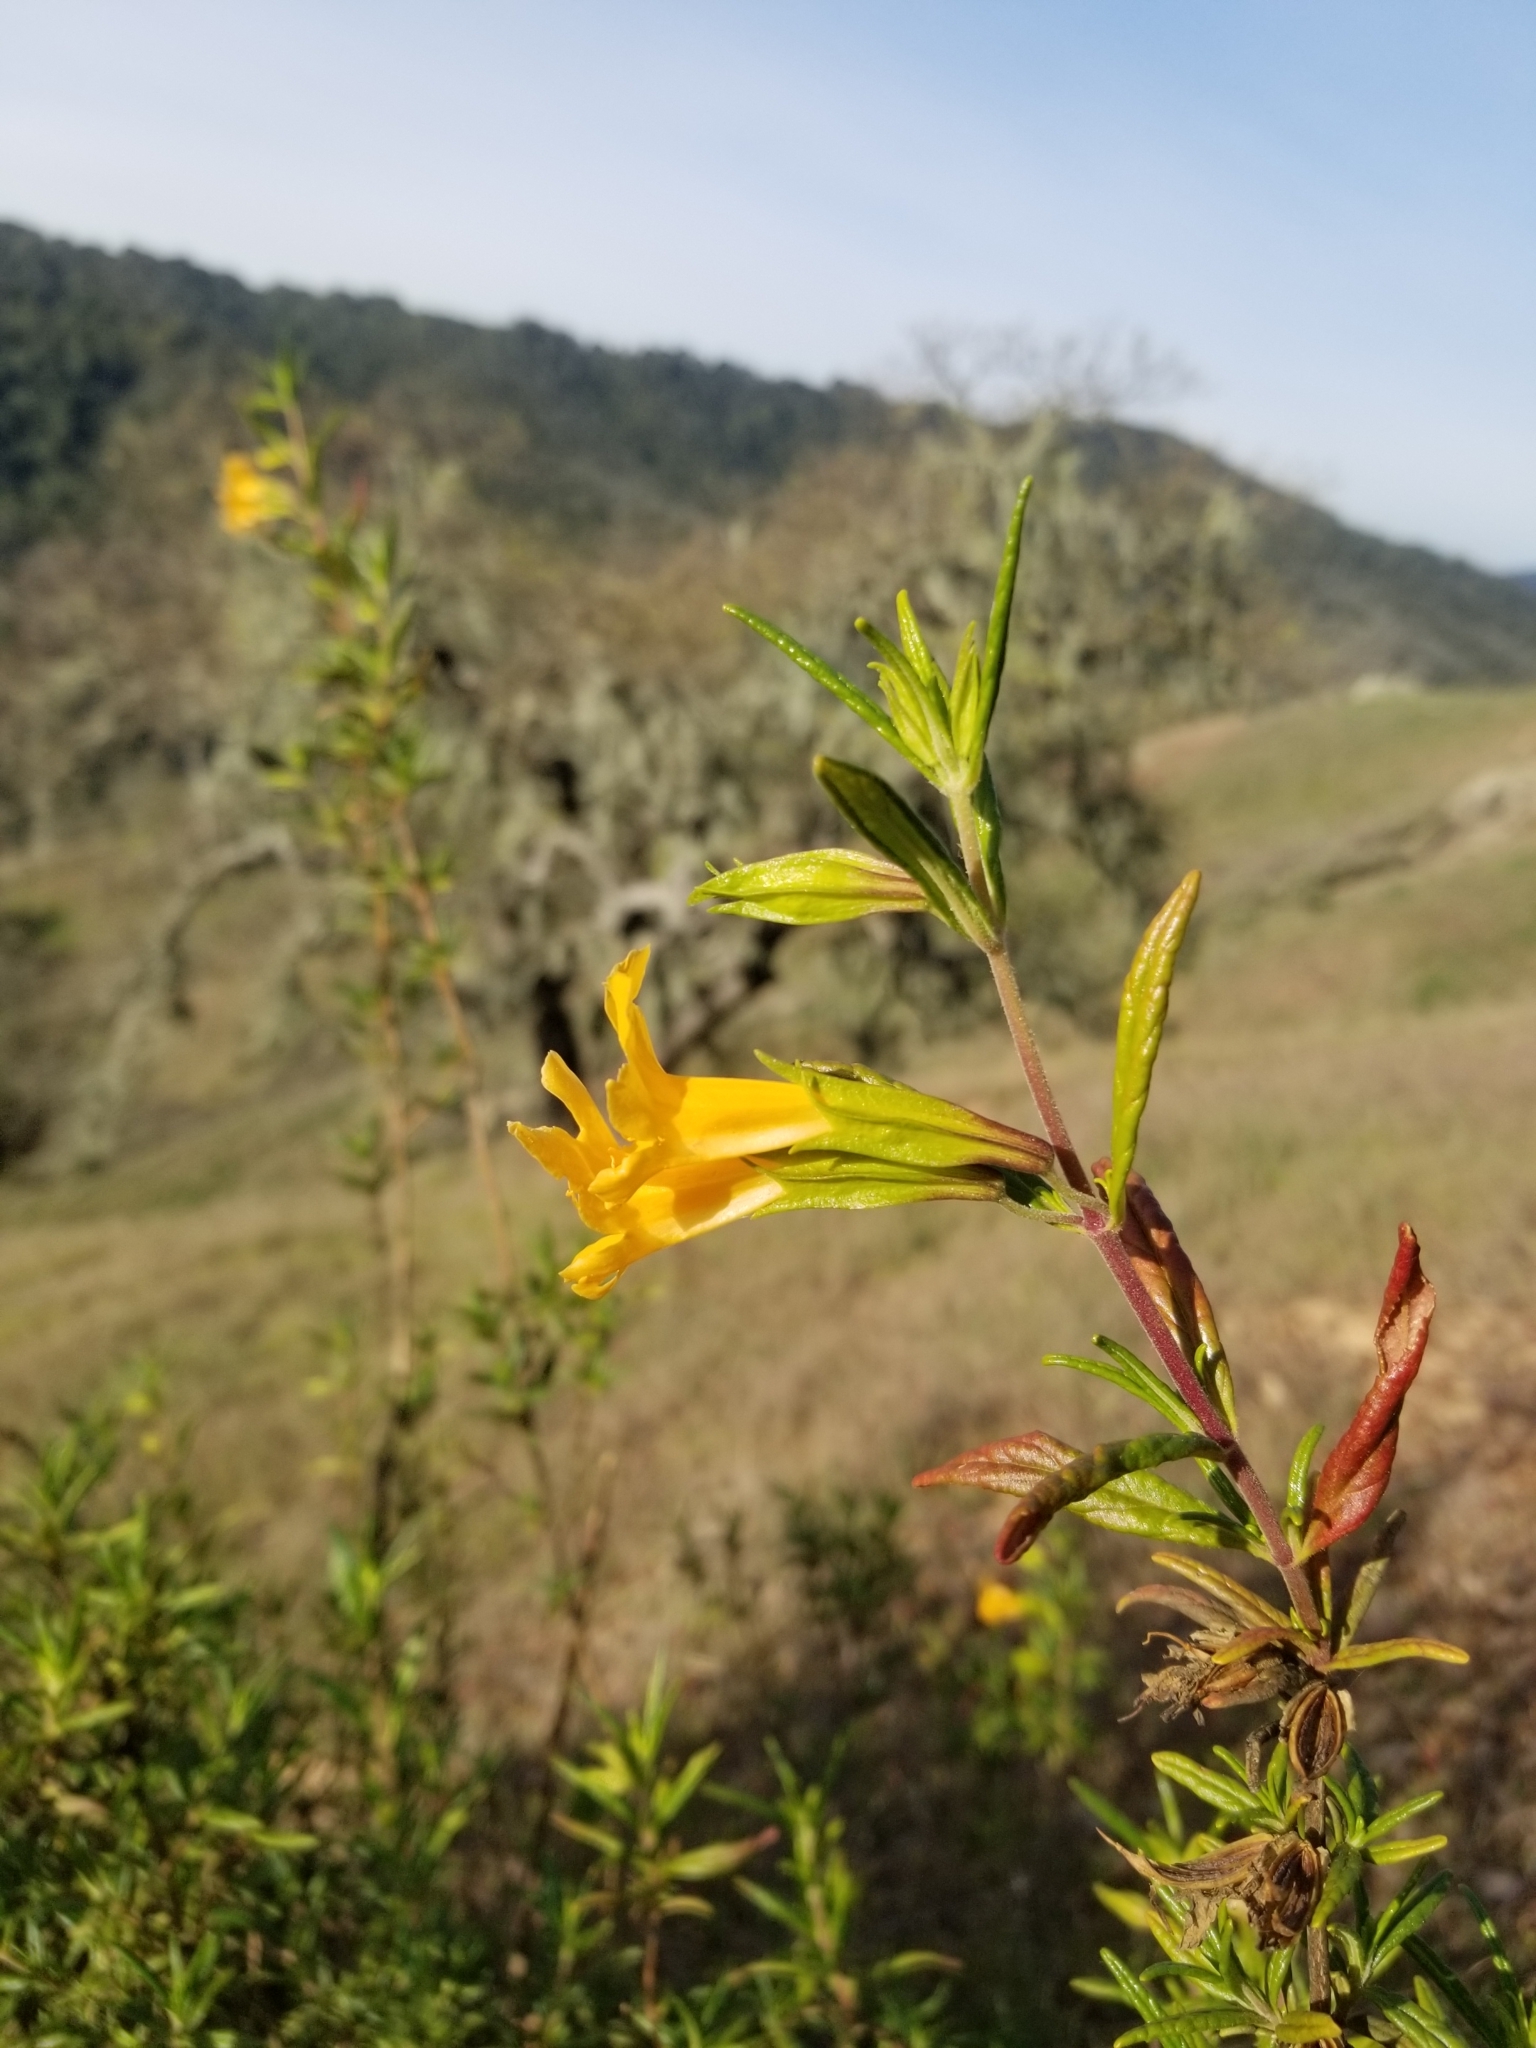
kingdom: Plantae
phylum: Tracheophyta
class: Magnoliopsida
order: Lamiales
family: Phrymaceae
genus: Diplacus
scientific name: Diplacus aurantiacus
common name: Bush monkey-flower
